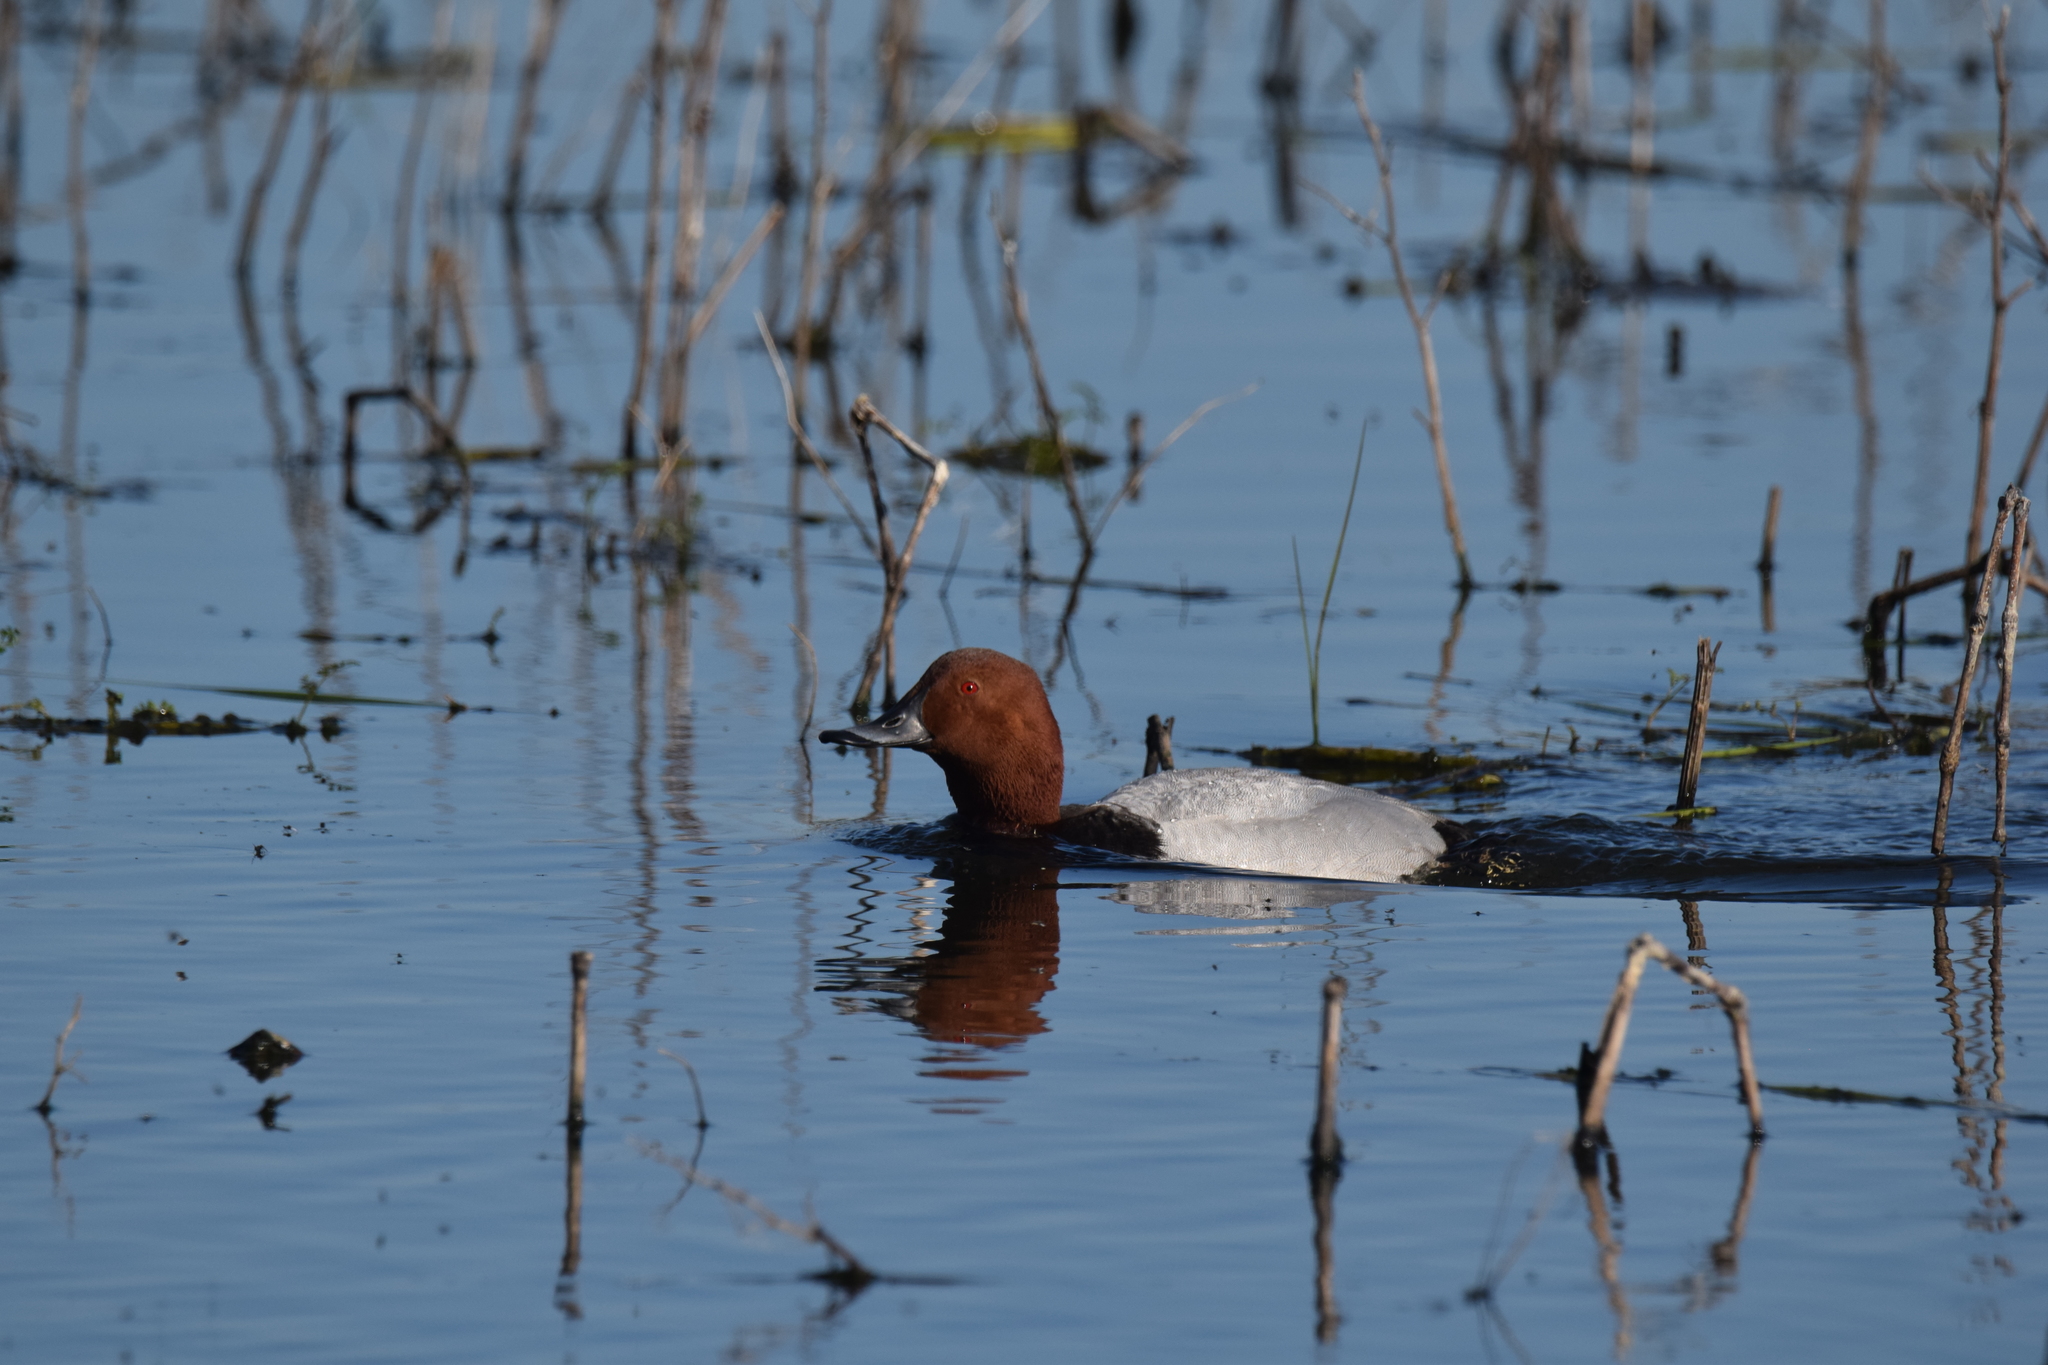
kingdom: Animalia
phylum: Chordata
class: Aves
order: Anseriformes
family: Anatidae
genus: Aythya
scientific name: Aythya ferina
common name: Common pochard
